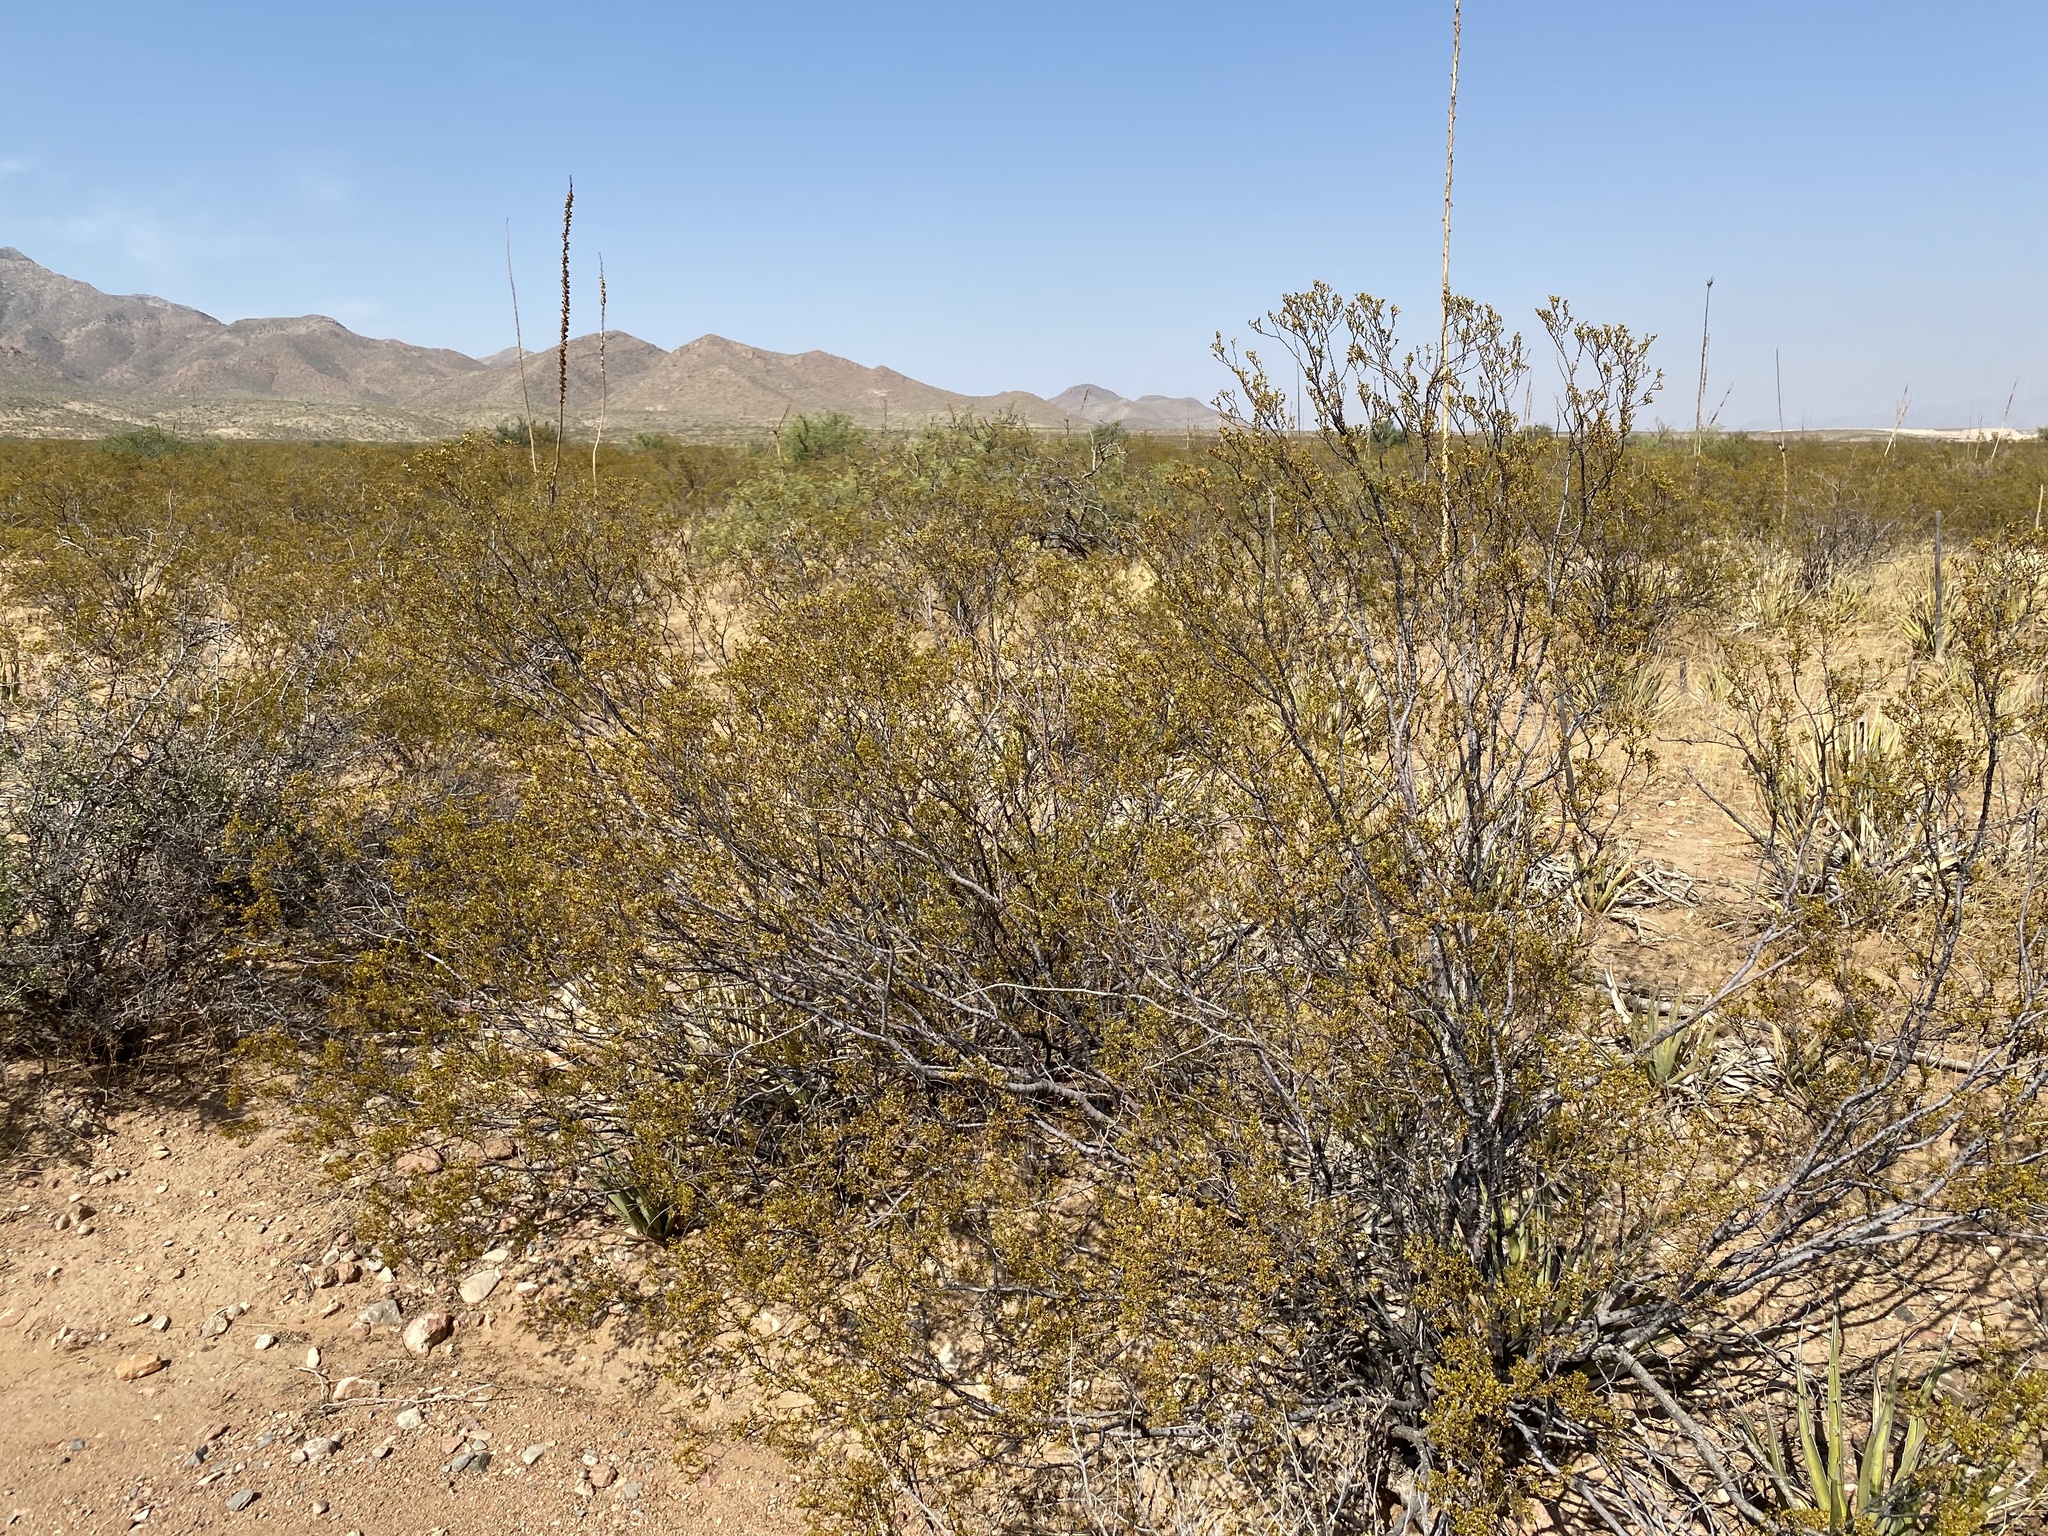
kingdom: Plantae
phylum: Tracheophyta
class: Magnoliopsida
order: Zygophyllales
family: Zygophyllaceae
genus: Larrea
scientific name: Larrea tridentata
